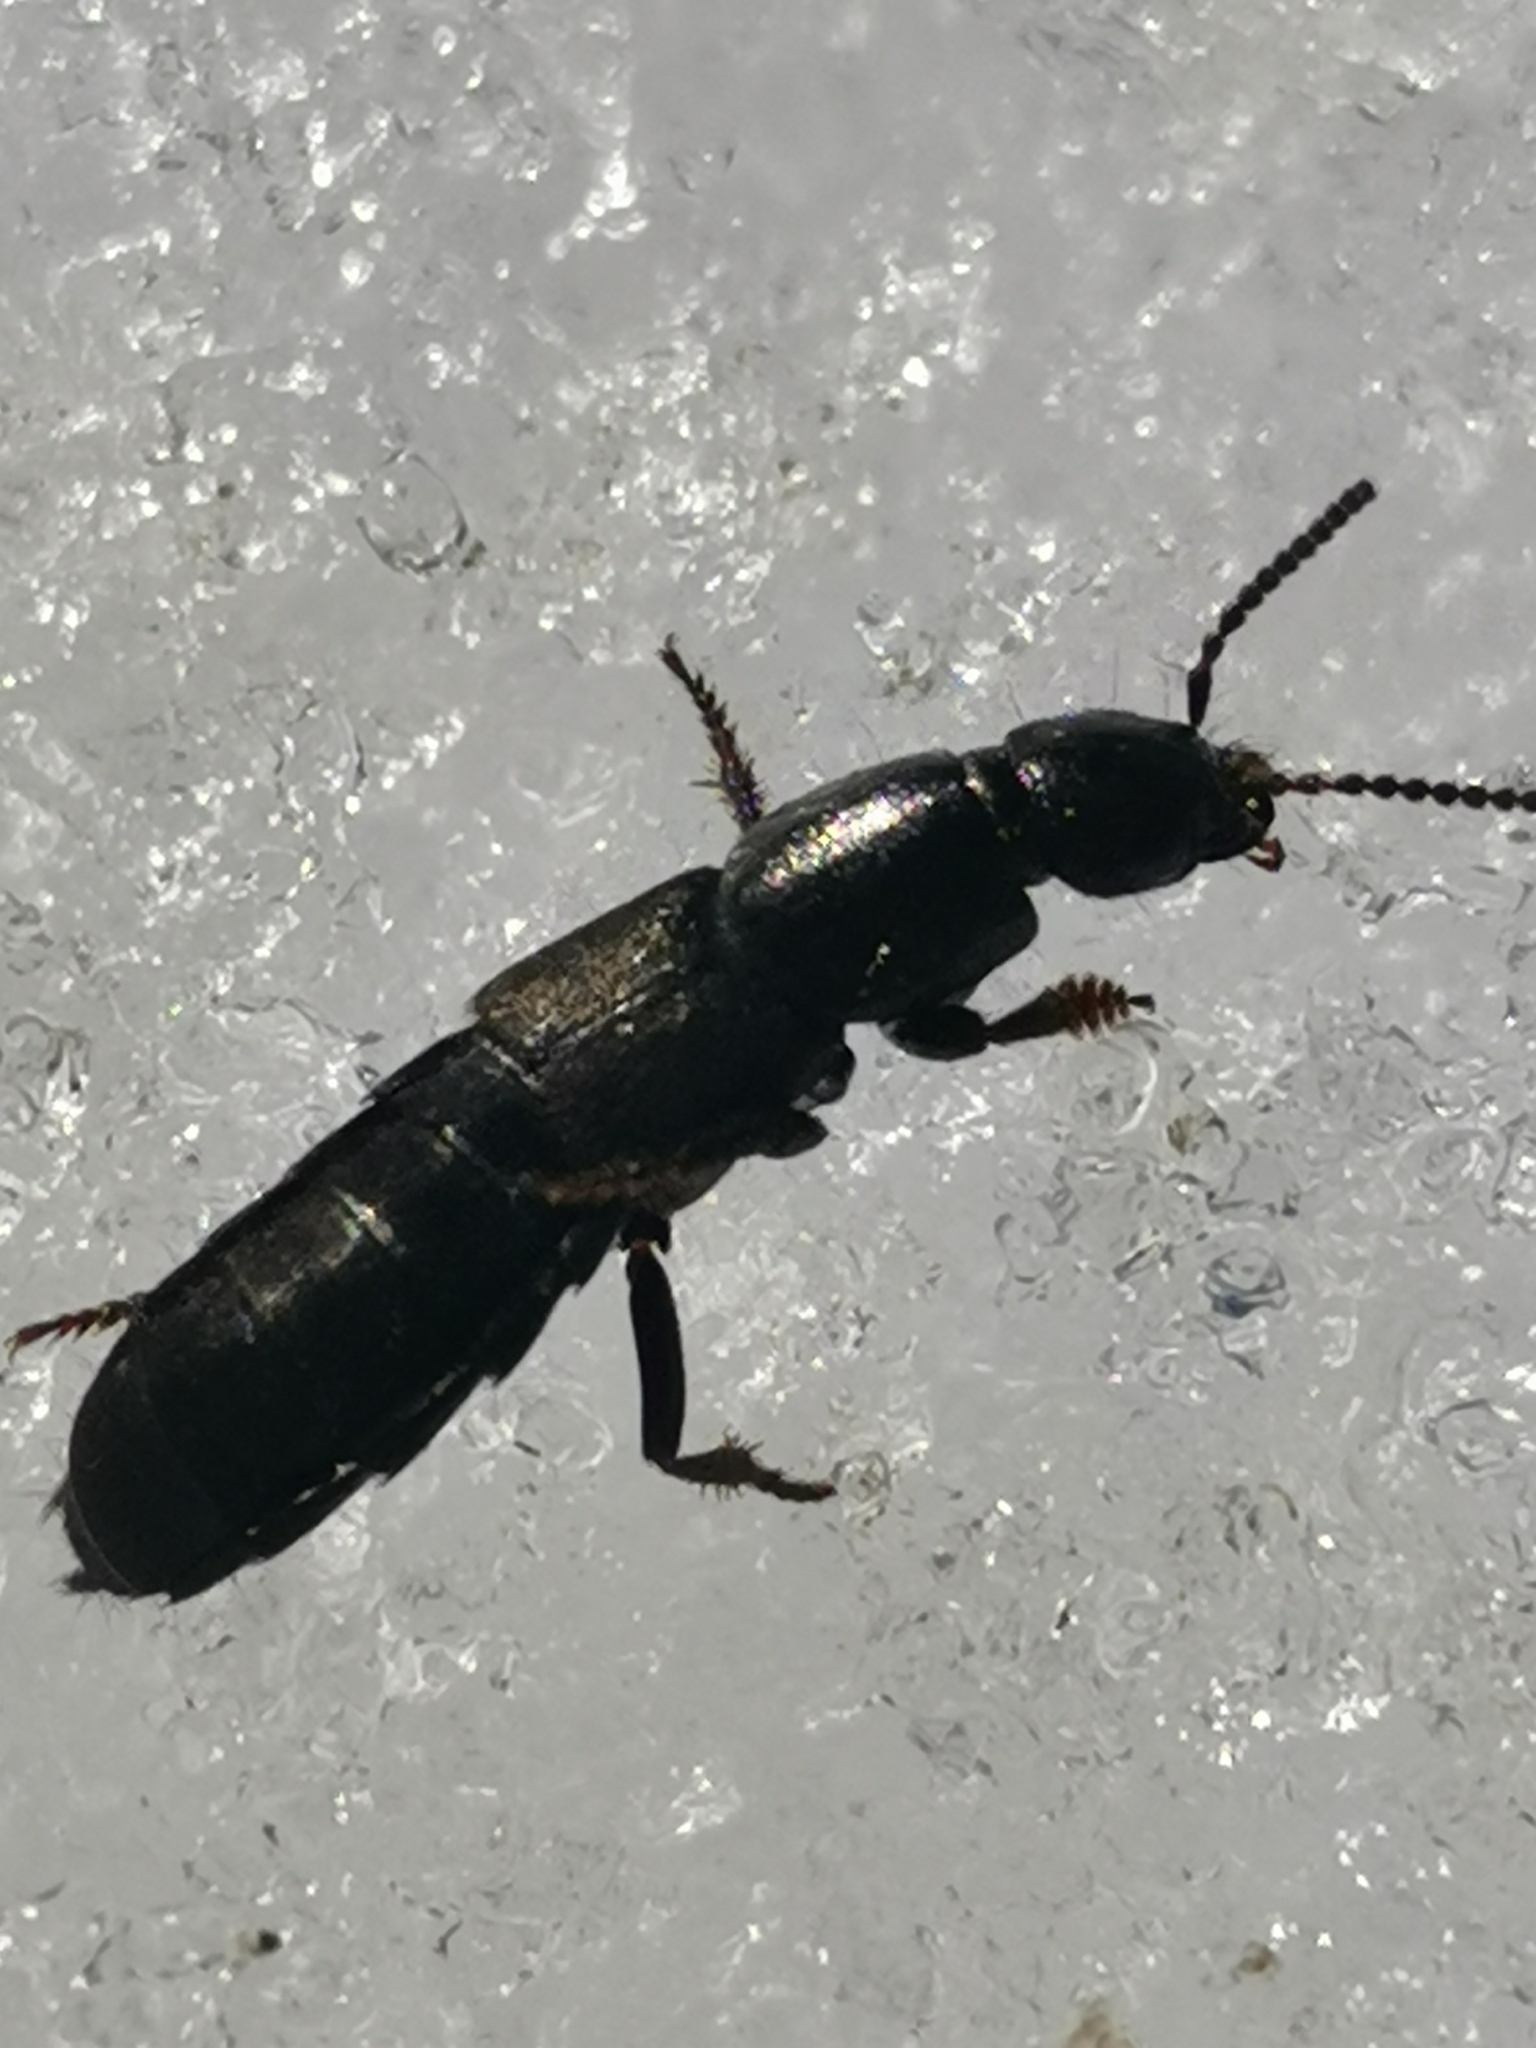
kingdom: Animalia
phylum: Arthropoda
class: Insecta
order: Coleoptera
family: Staphylinidae
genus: Ocypus
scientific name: Ocypus fuscatus
